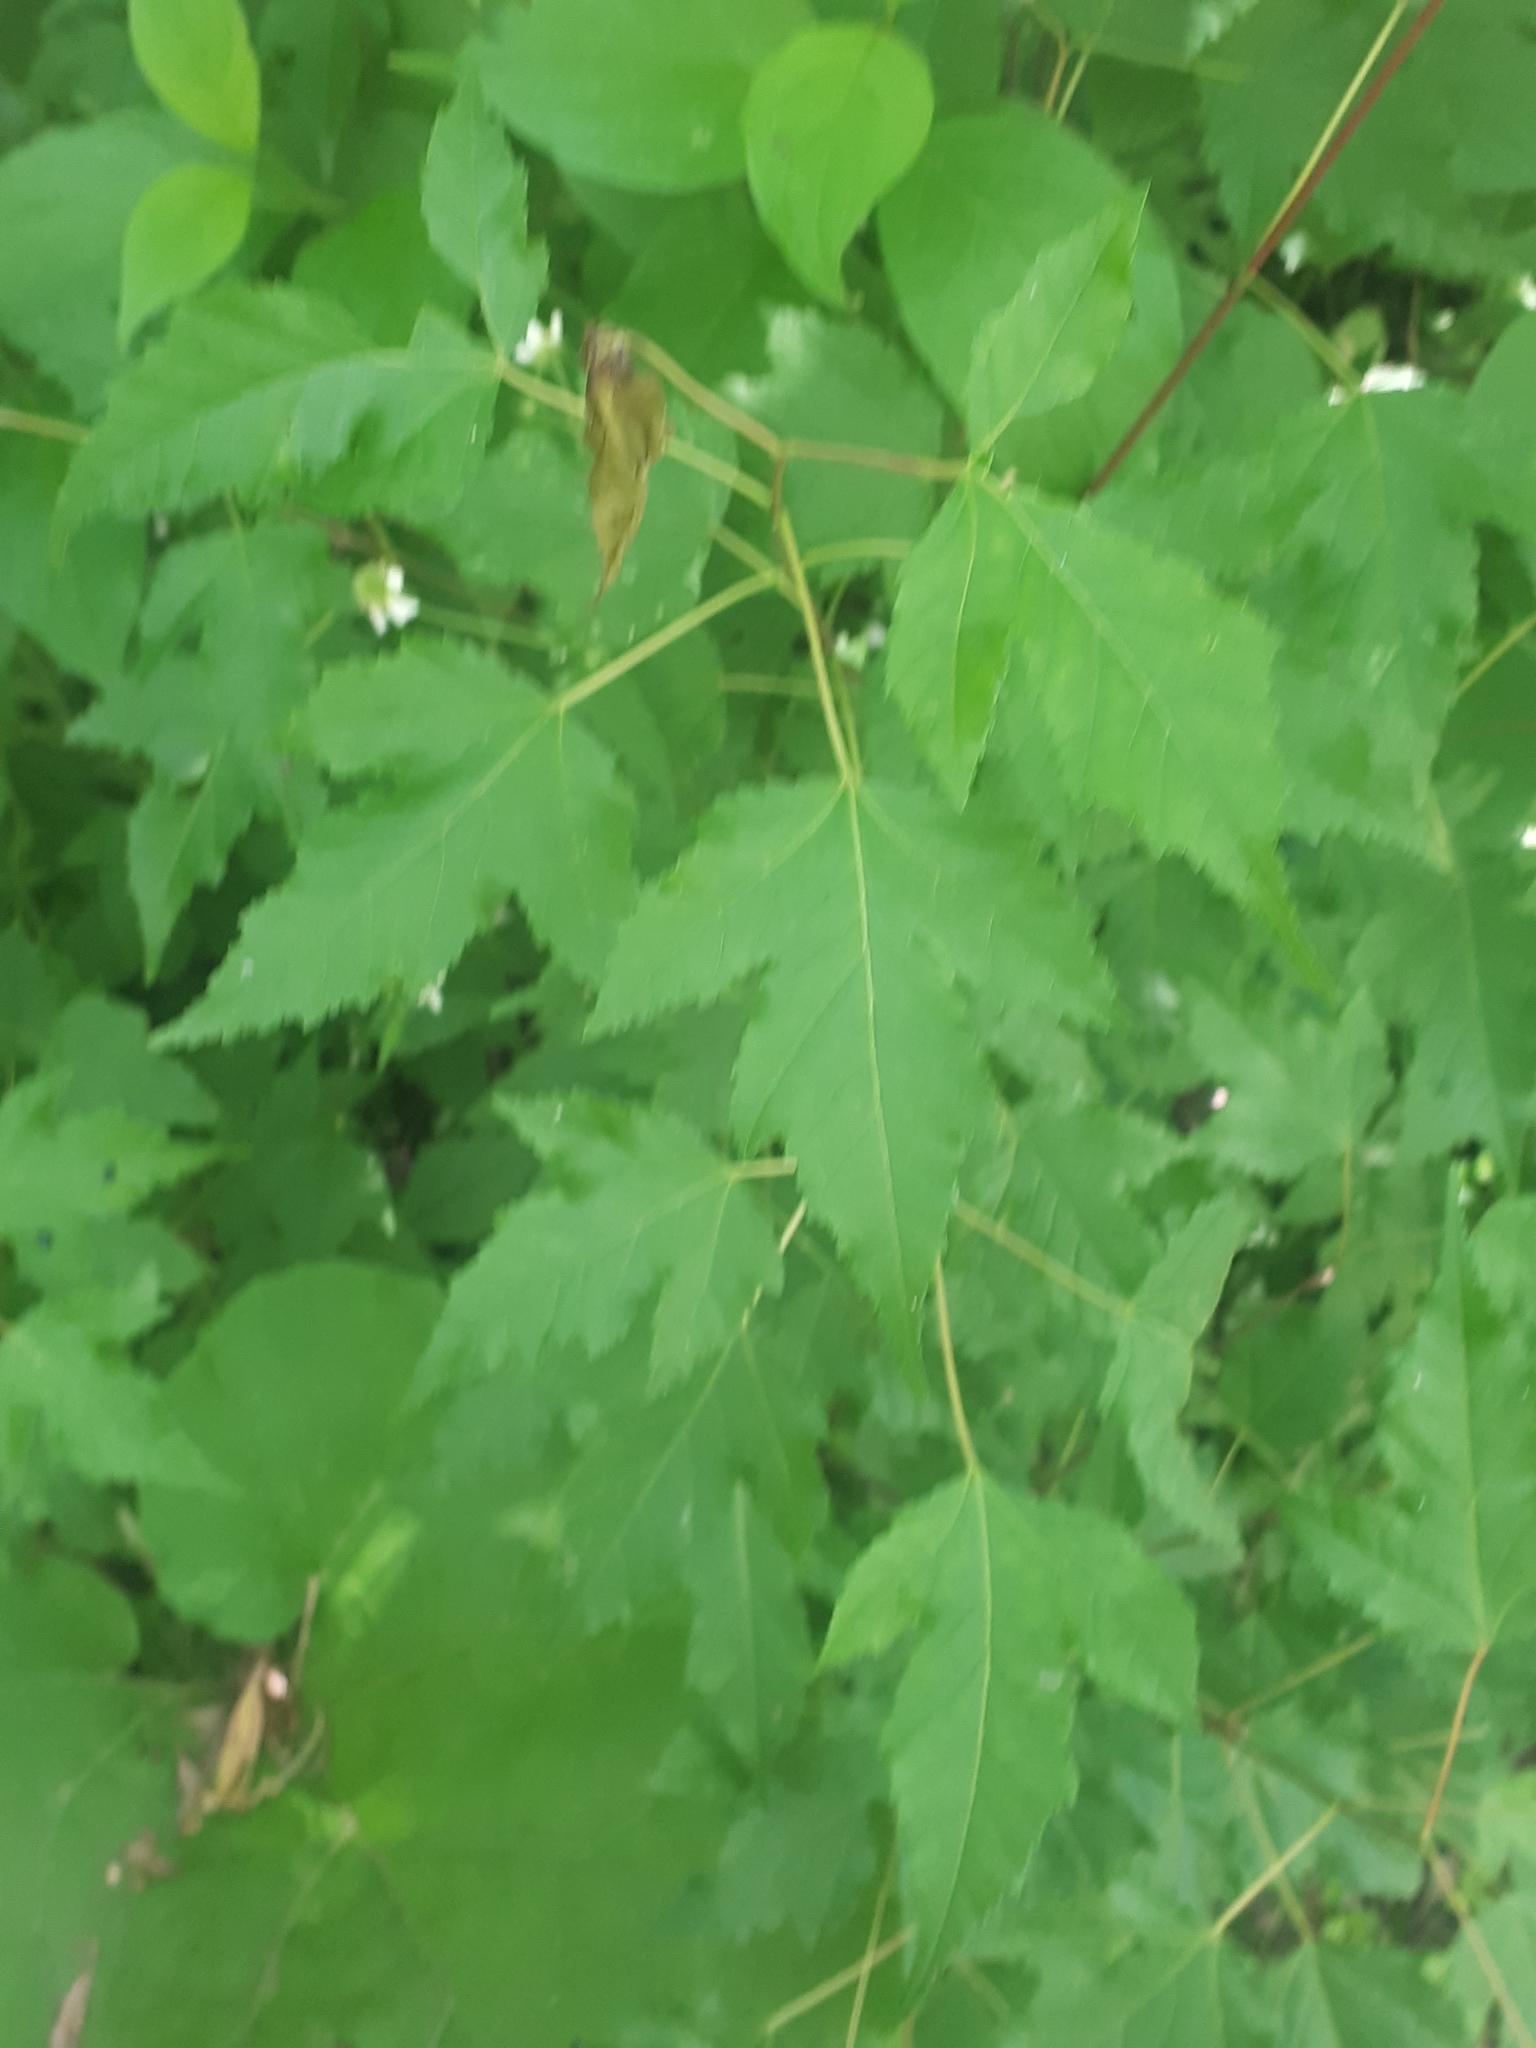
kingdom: Plantae
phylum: Tracheophyta
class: Magnoliopsida
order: Sapindales
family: Sapindaceae
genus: Acer
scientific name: Acer tataricum
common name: Tartar maple
